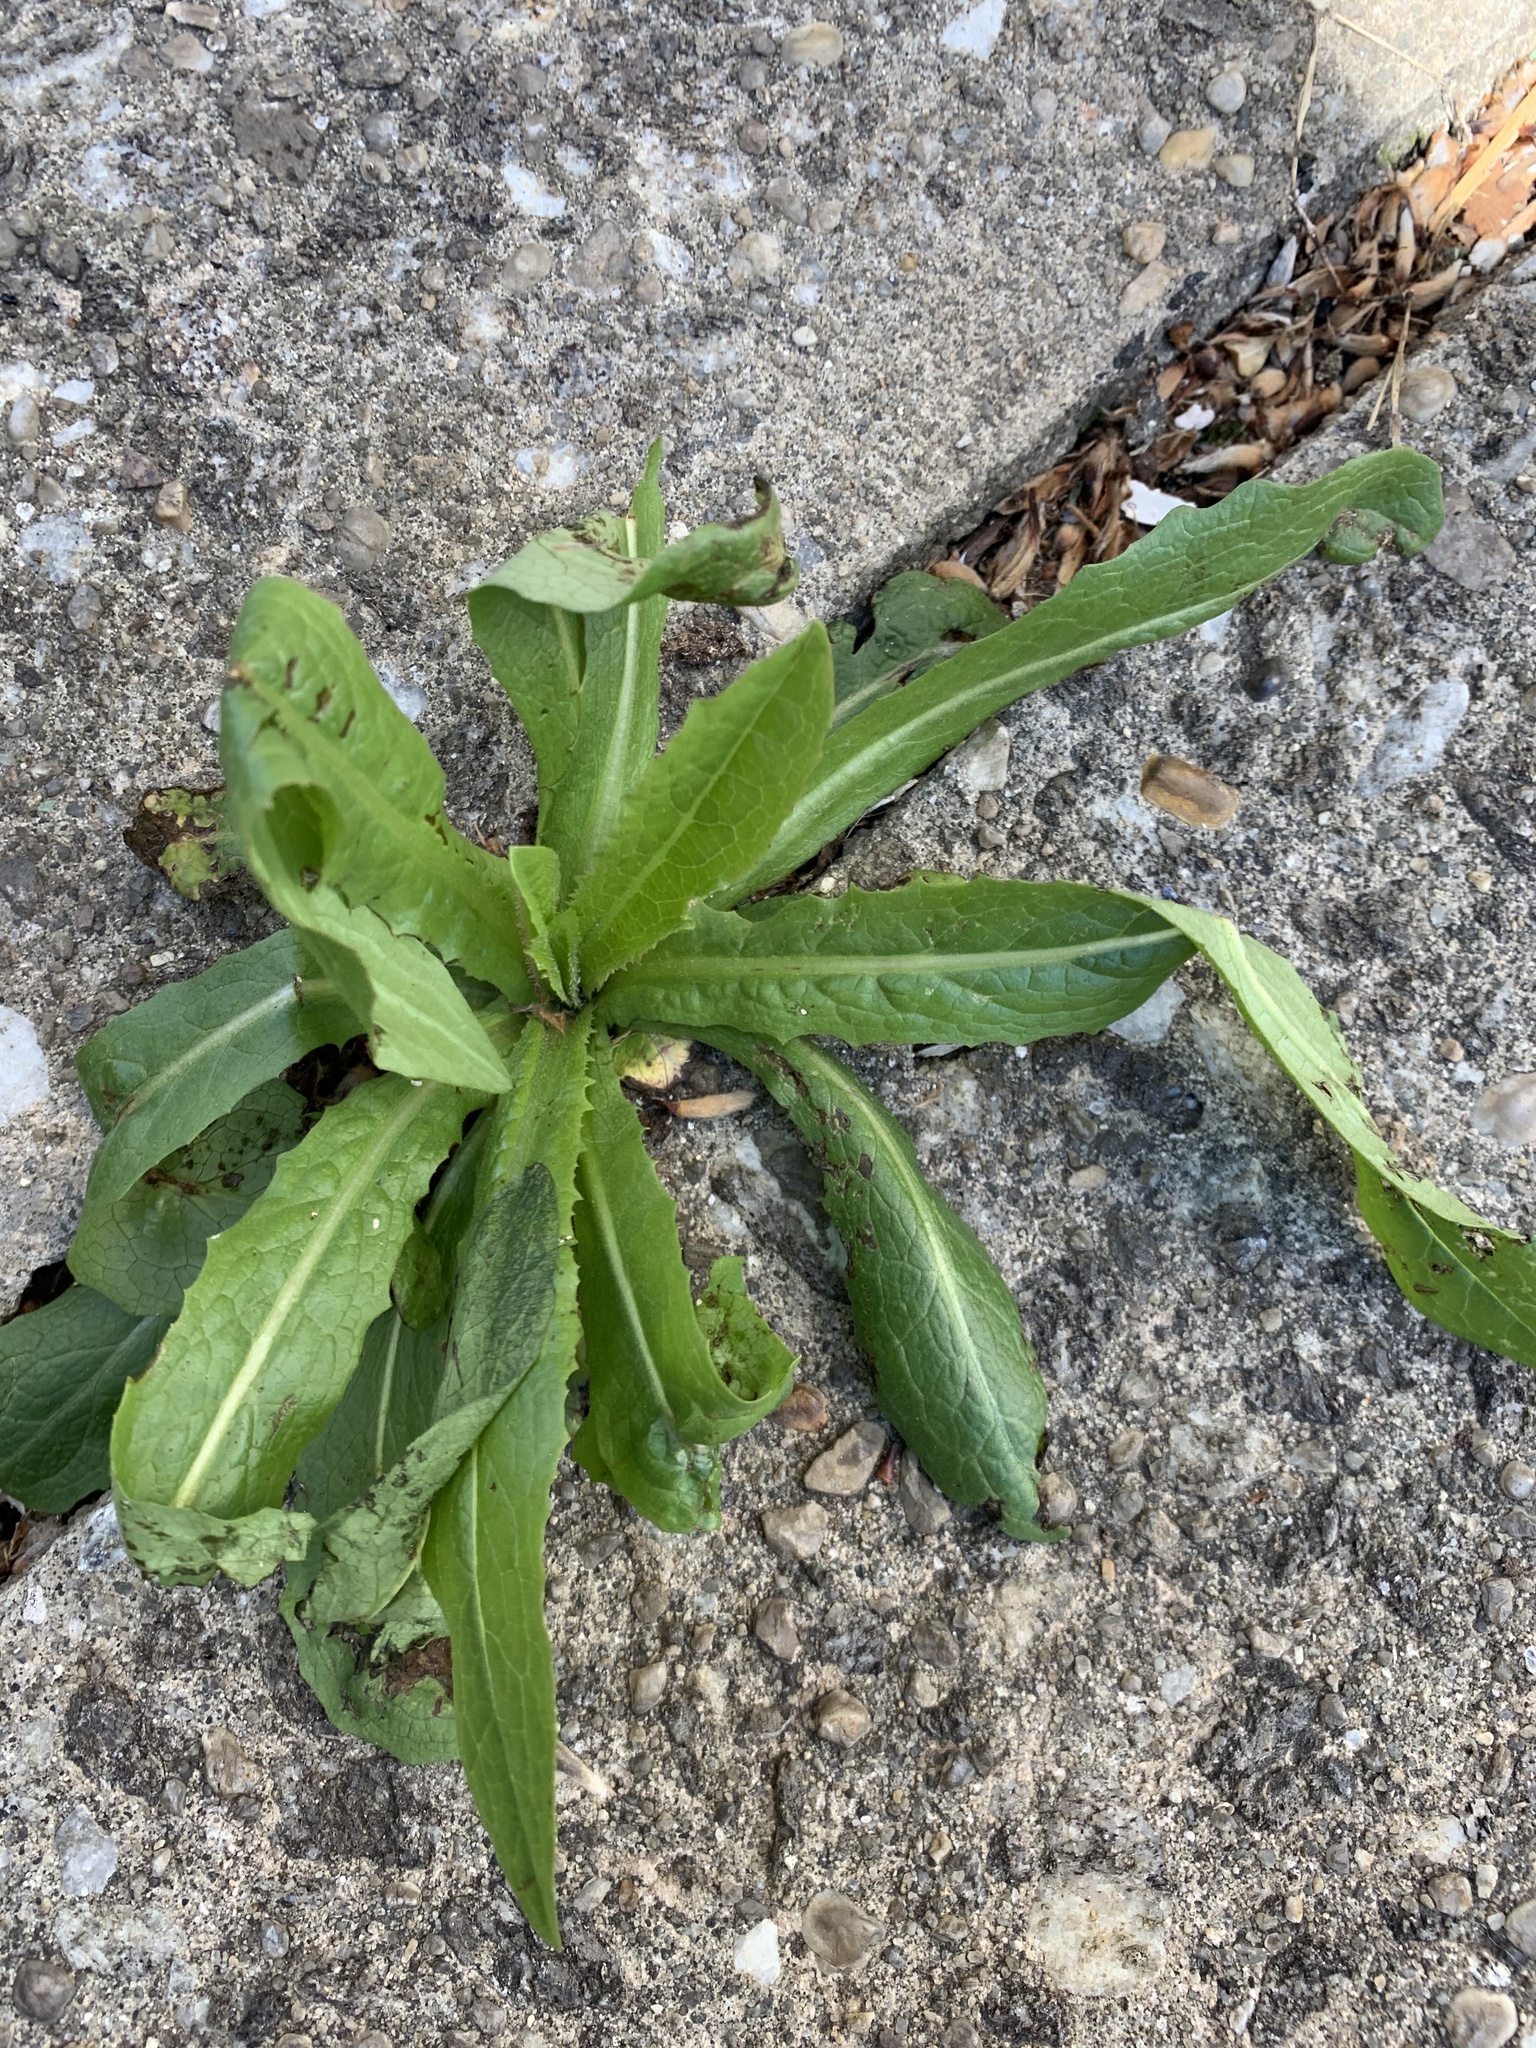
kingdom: Plantae
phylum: Tracheophyta
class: Magnoliopsida
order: Asterales
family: Asteraceae
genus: Lactuca
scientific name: Lactuca serriola
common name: Prickly lettuce
